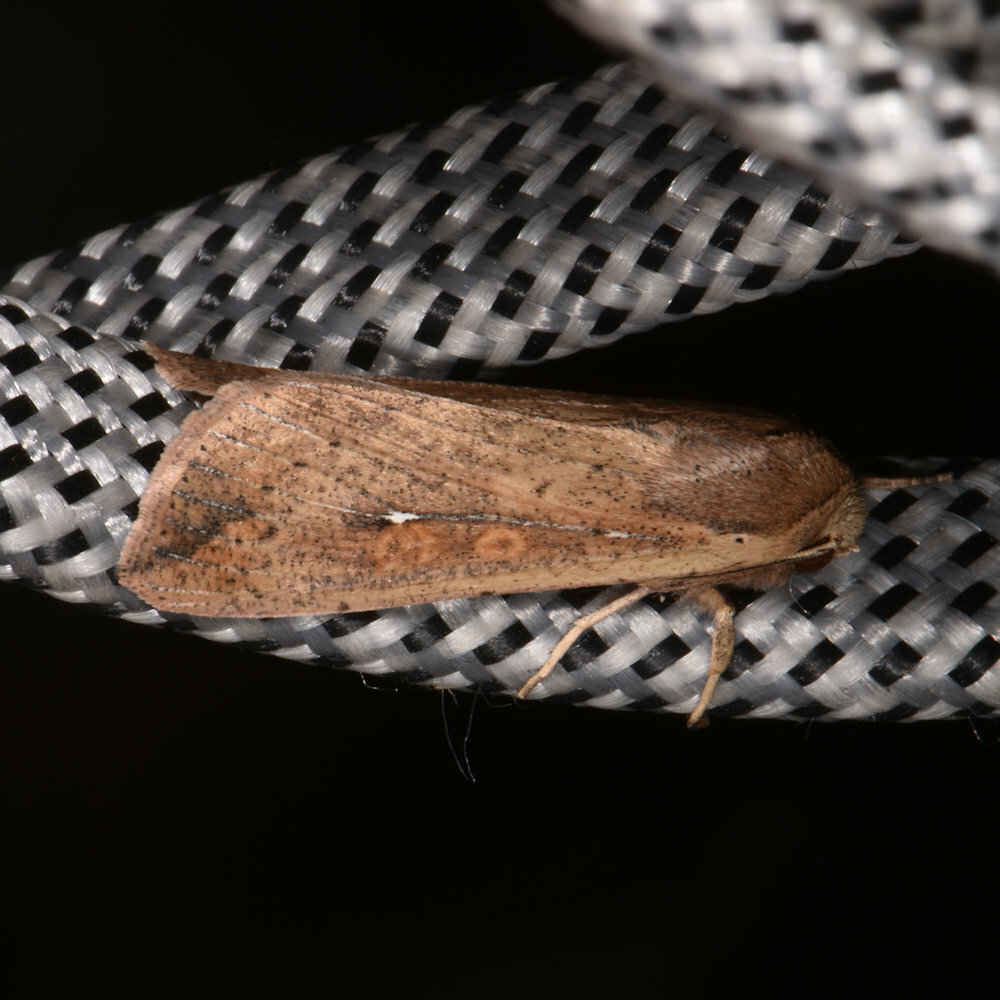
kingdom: Animalia
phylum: Arthropoda
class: Insecta
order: Lepidoptera
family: Noctuidae
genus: Mythimna
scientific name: Mythimna unipuncta
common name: White-speck
